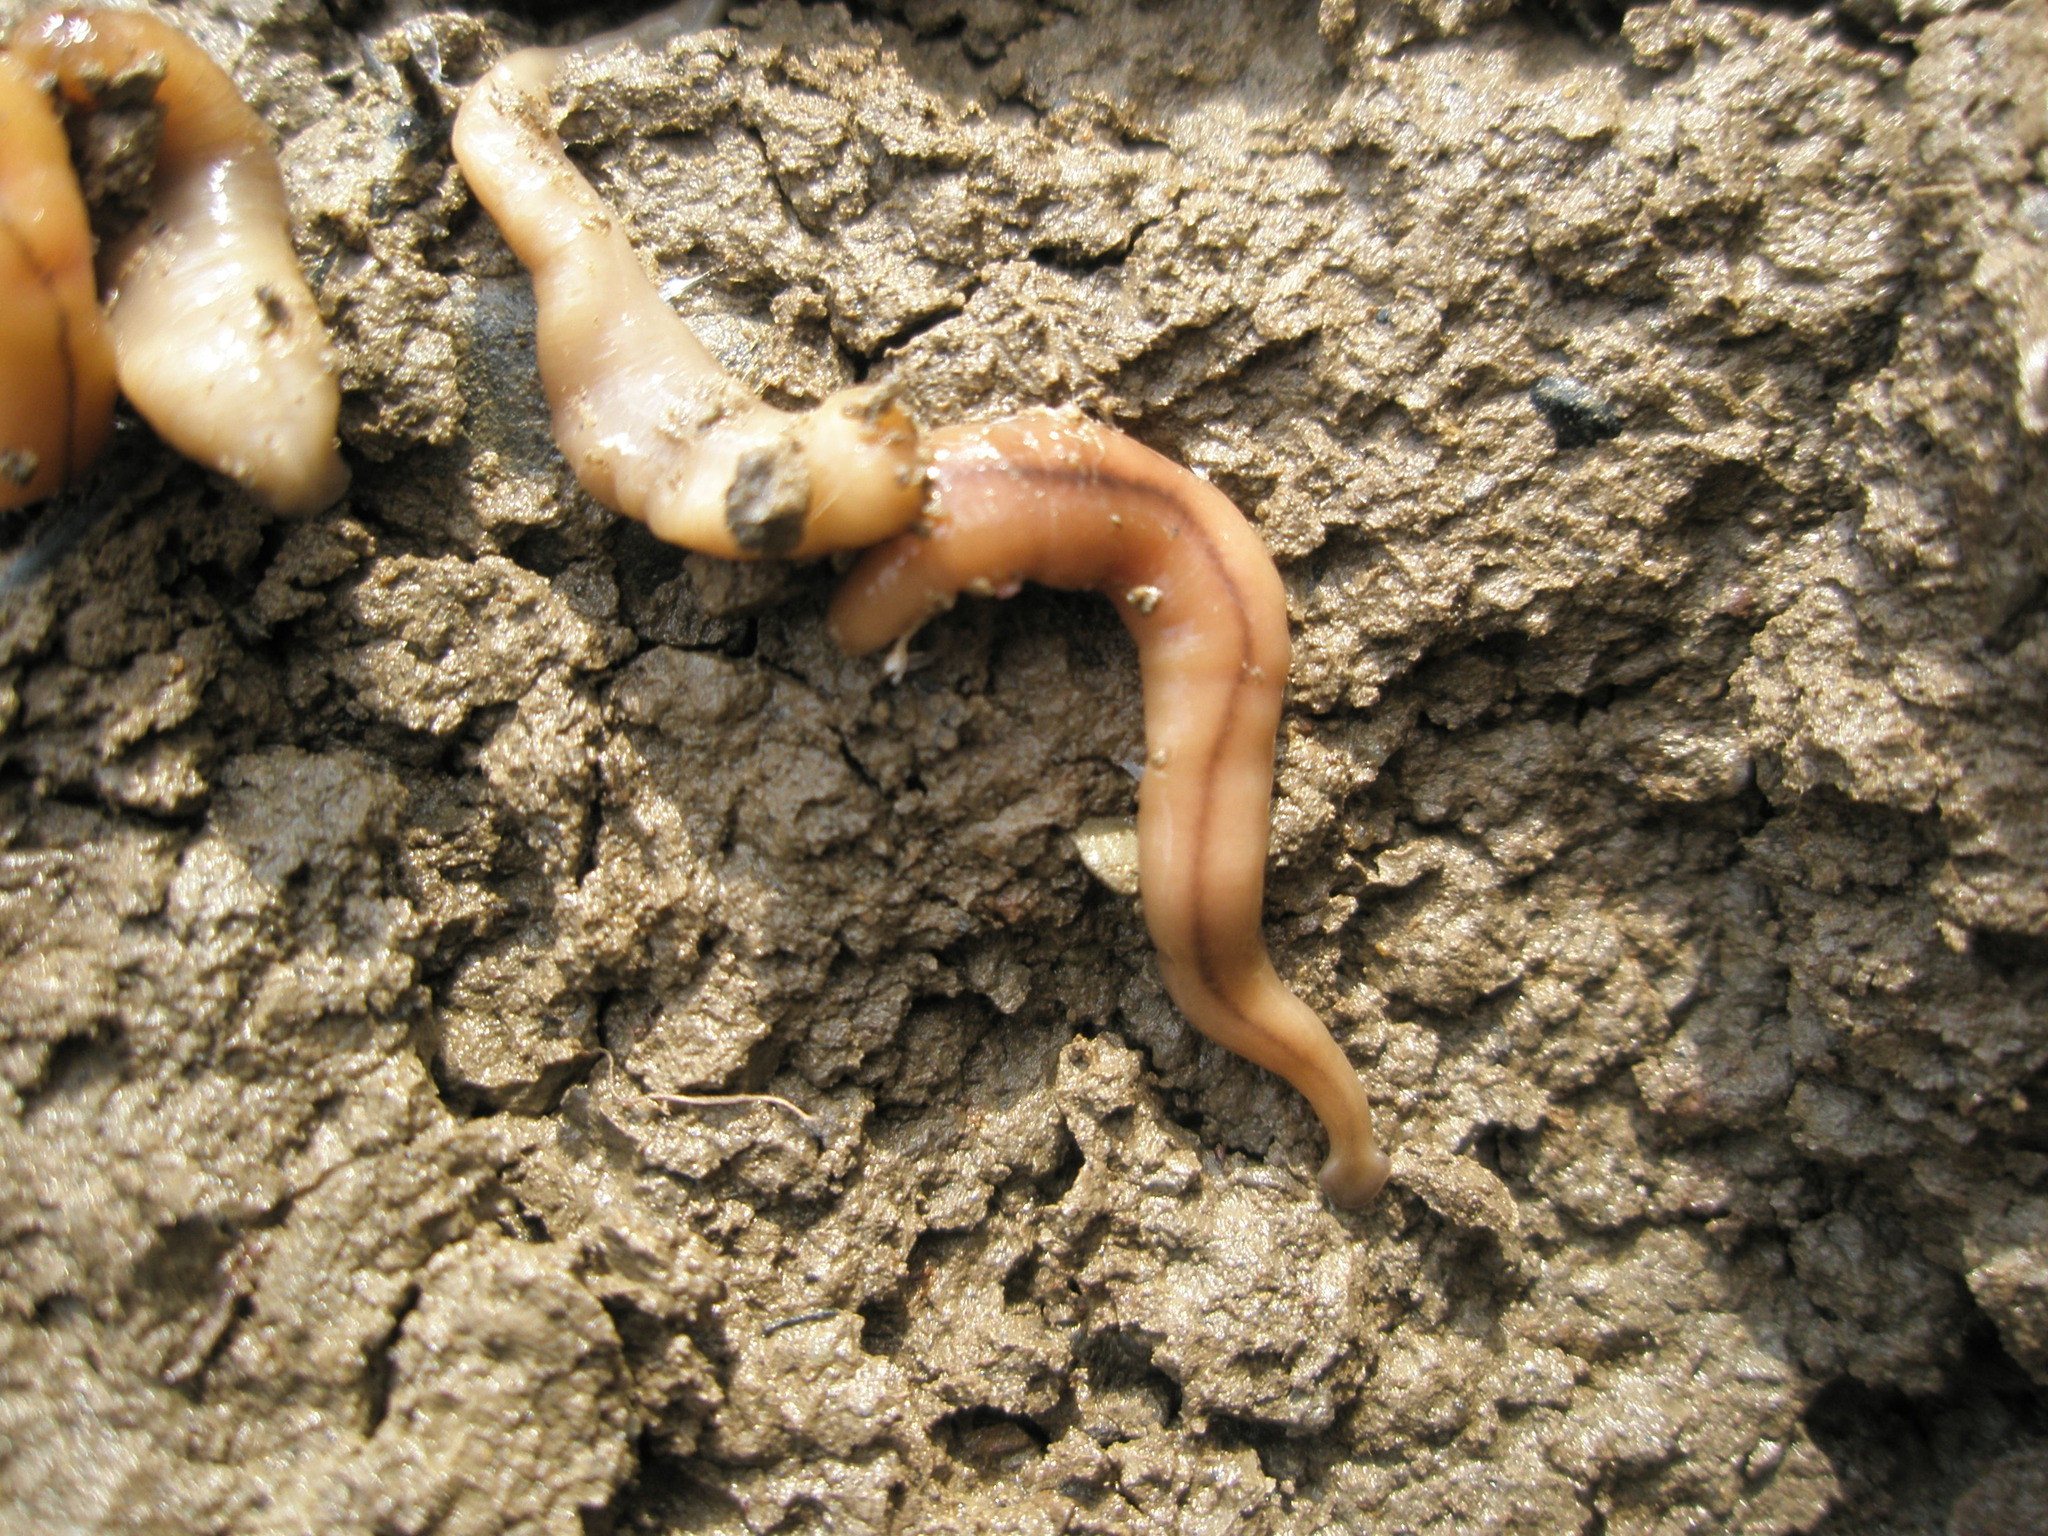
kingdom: Animalia
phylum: Platyhelminthes
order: Tricladida
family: Geoplanidae
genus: Bipalium
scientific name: Bipalium adventitium
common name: Land planarian
